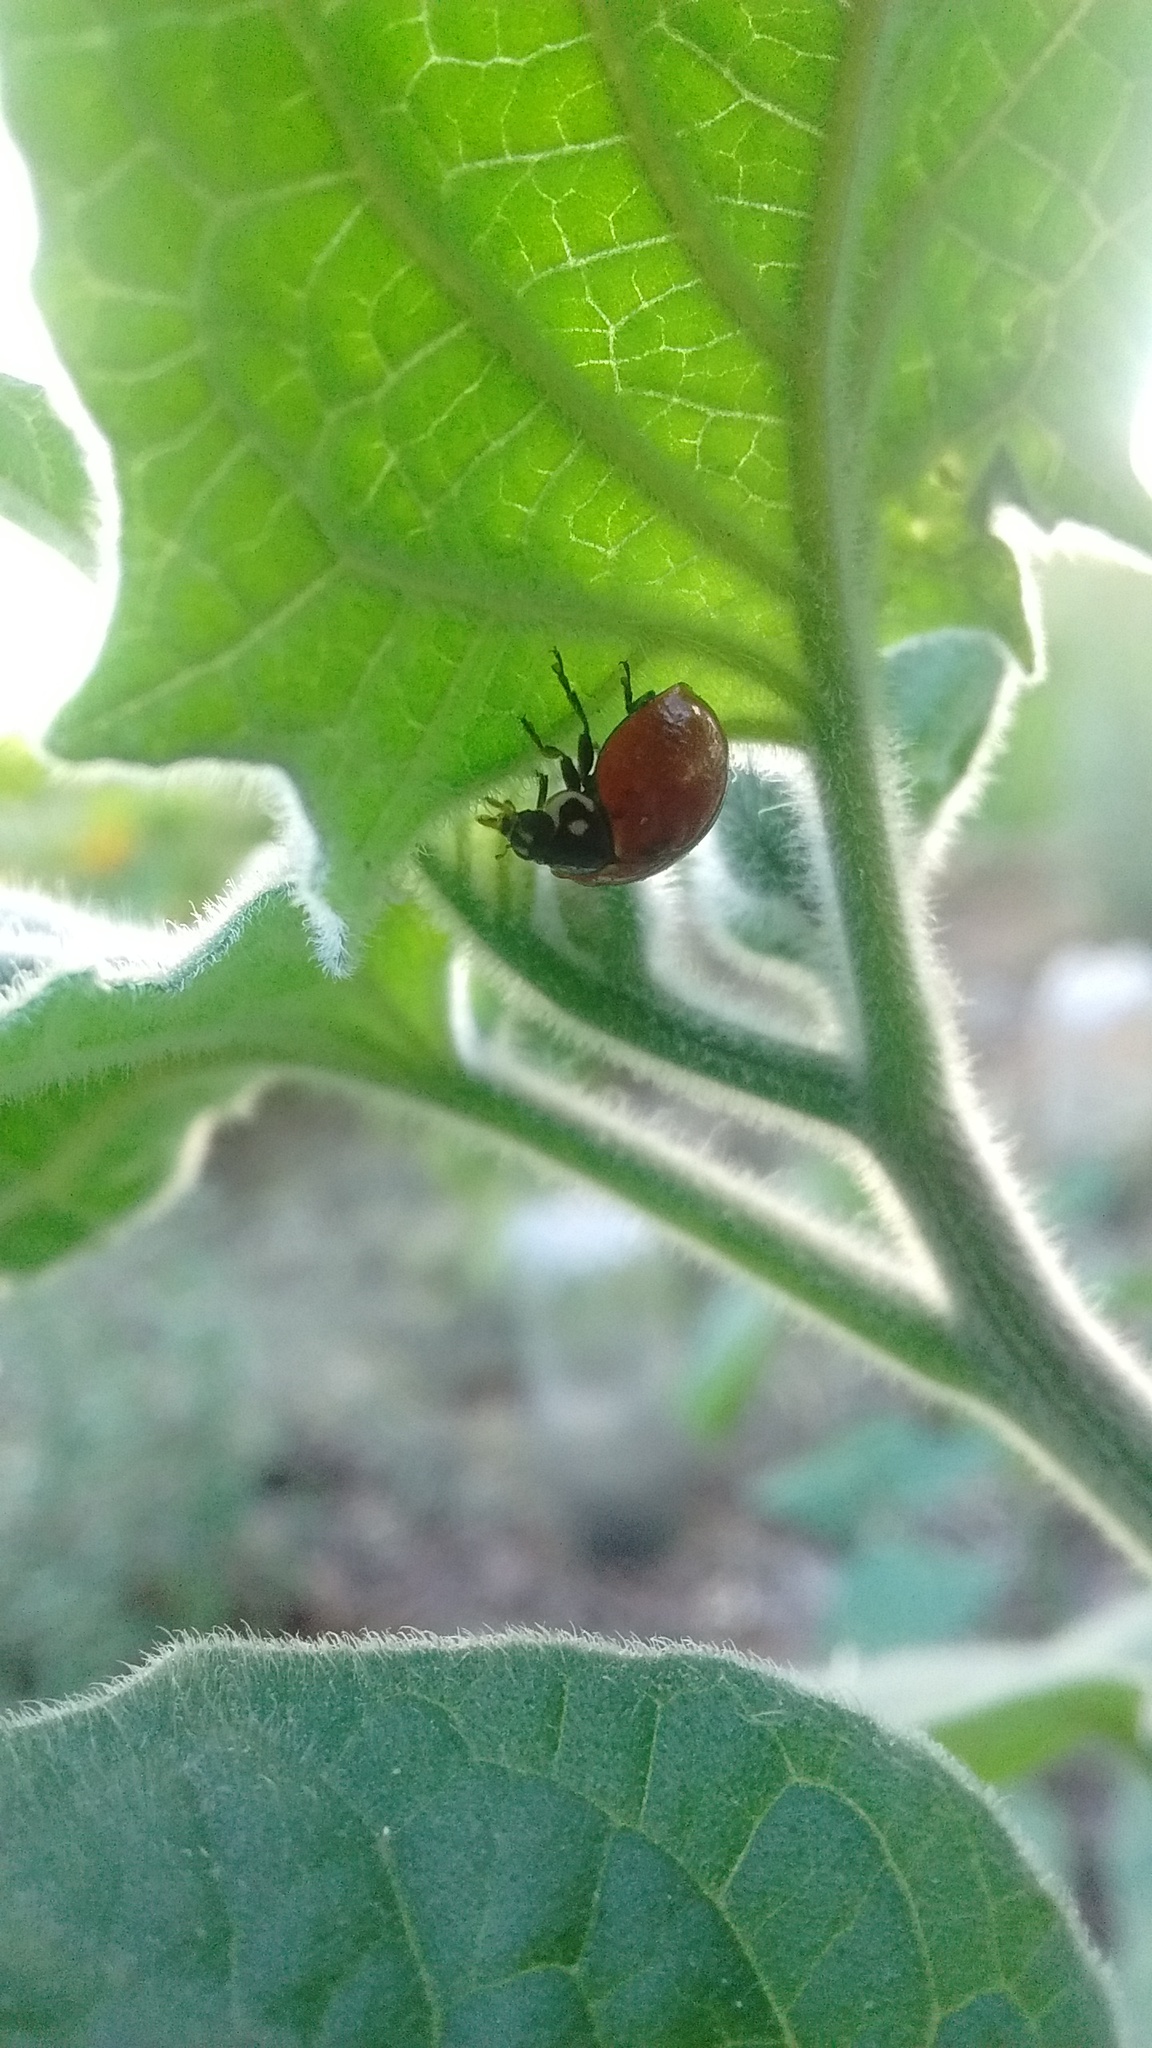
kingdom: Animalia
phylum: Arthropoda
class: Insecta
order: Coleoptera
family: Coccinellidae
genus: Cycloneda
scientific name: Cycloneda sanguinea
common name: Ladybird beetle
